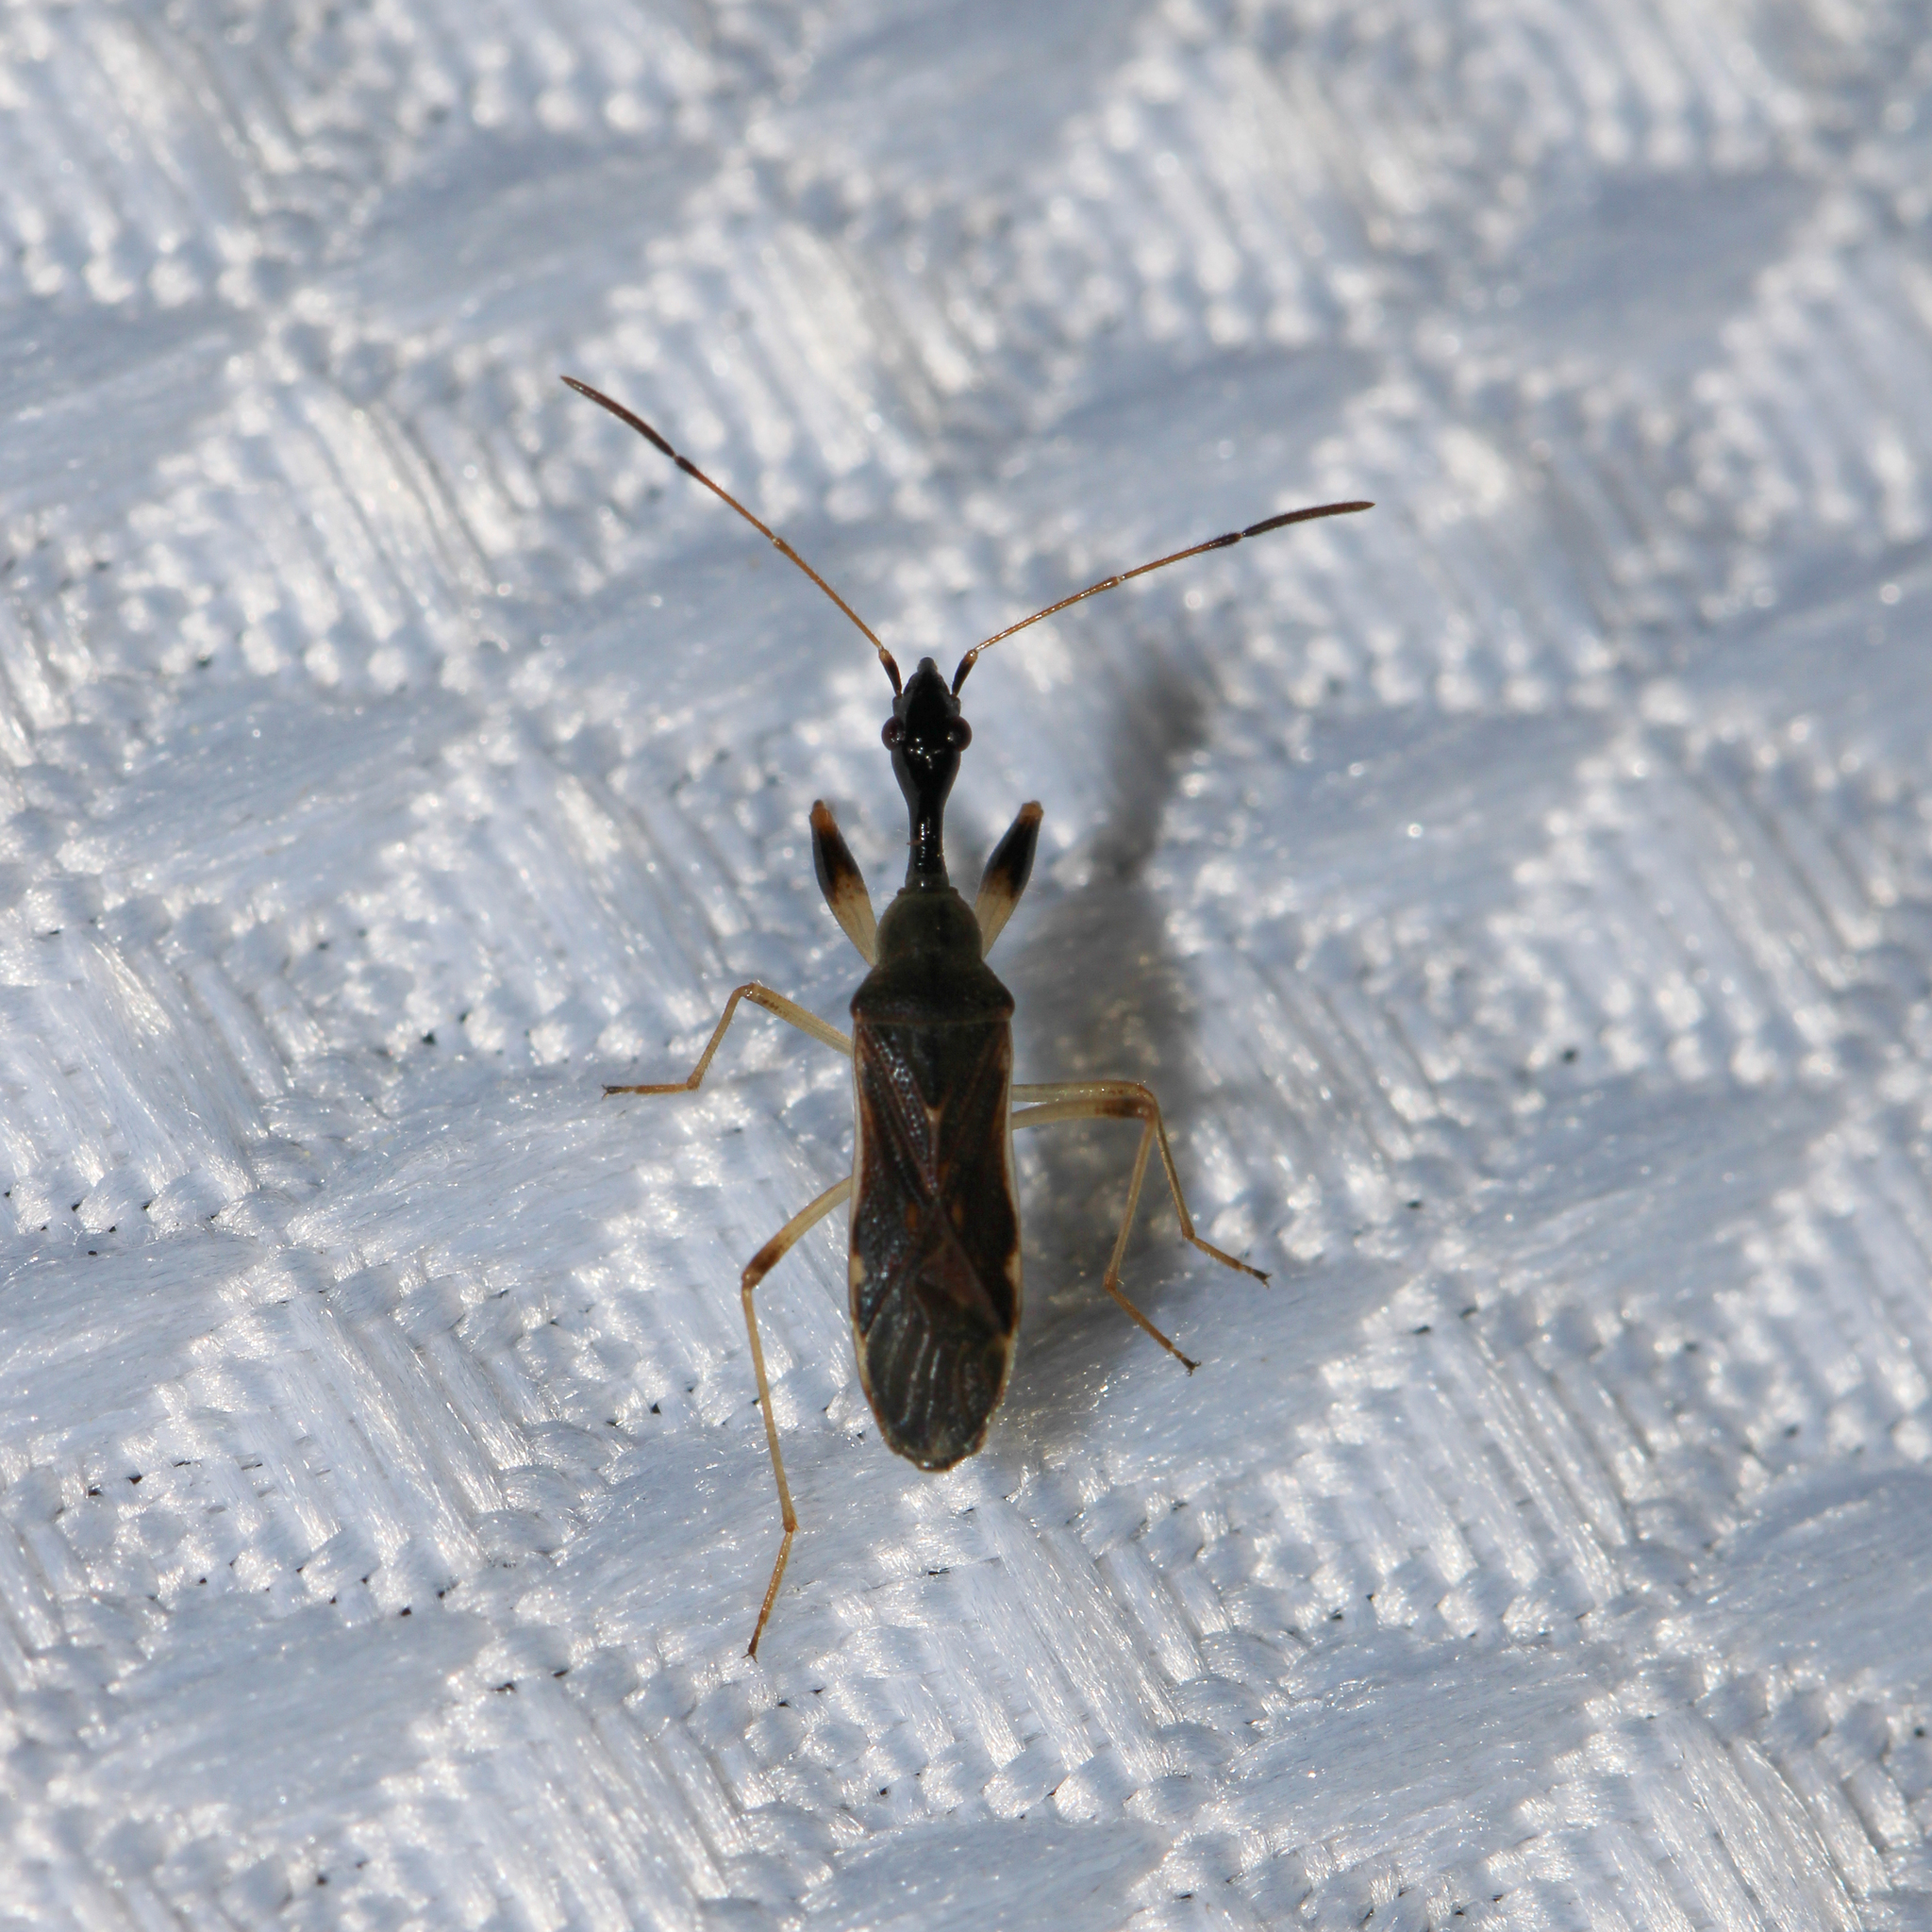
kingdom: Animalia
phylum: Arthropoda
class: Insecta
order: Hemiptera
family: Rhyparochromidae
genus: Myodocha
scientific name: Myodocha serripes
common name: Long-necked seed bug
